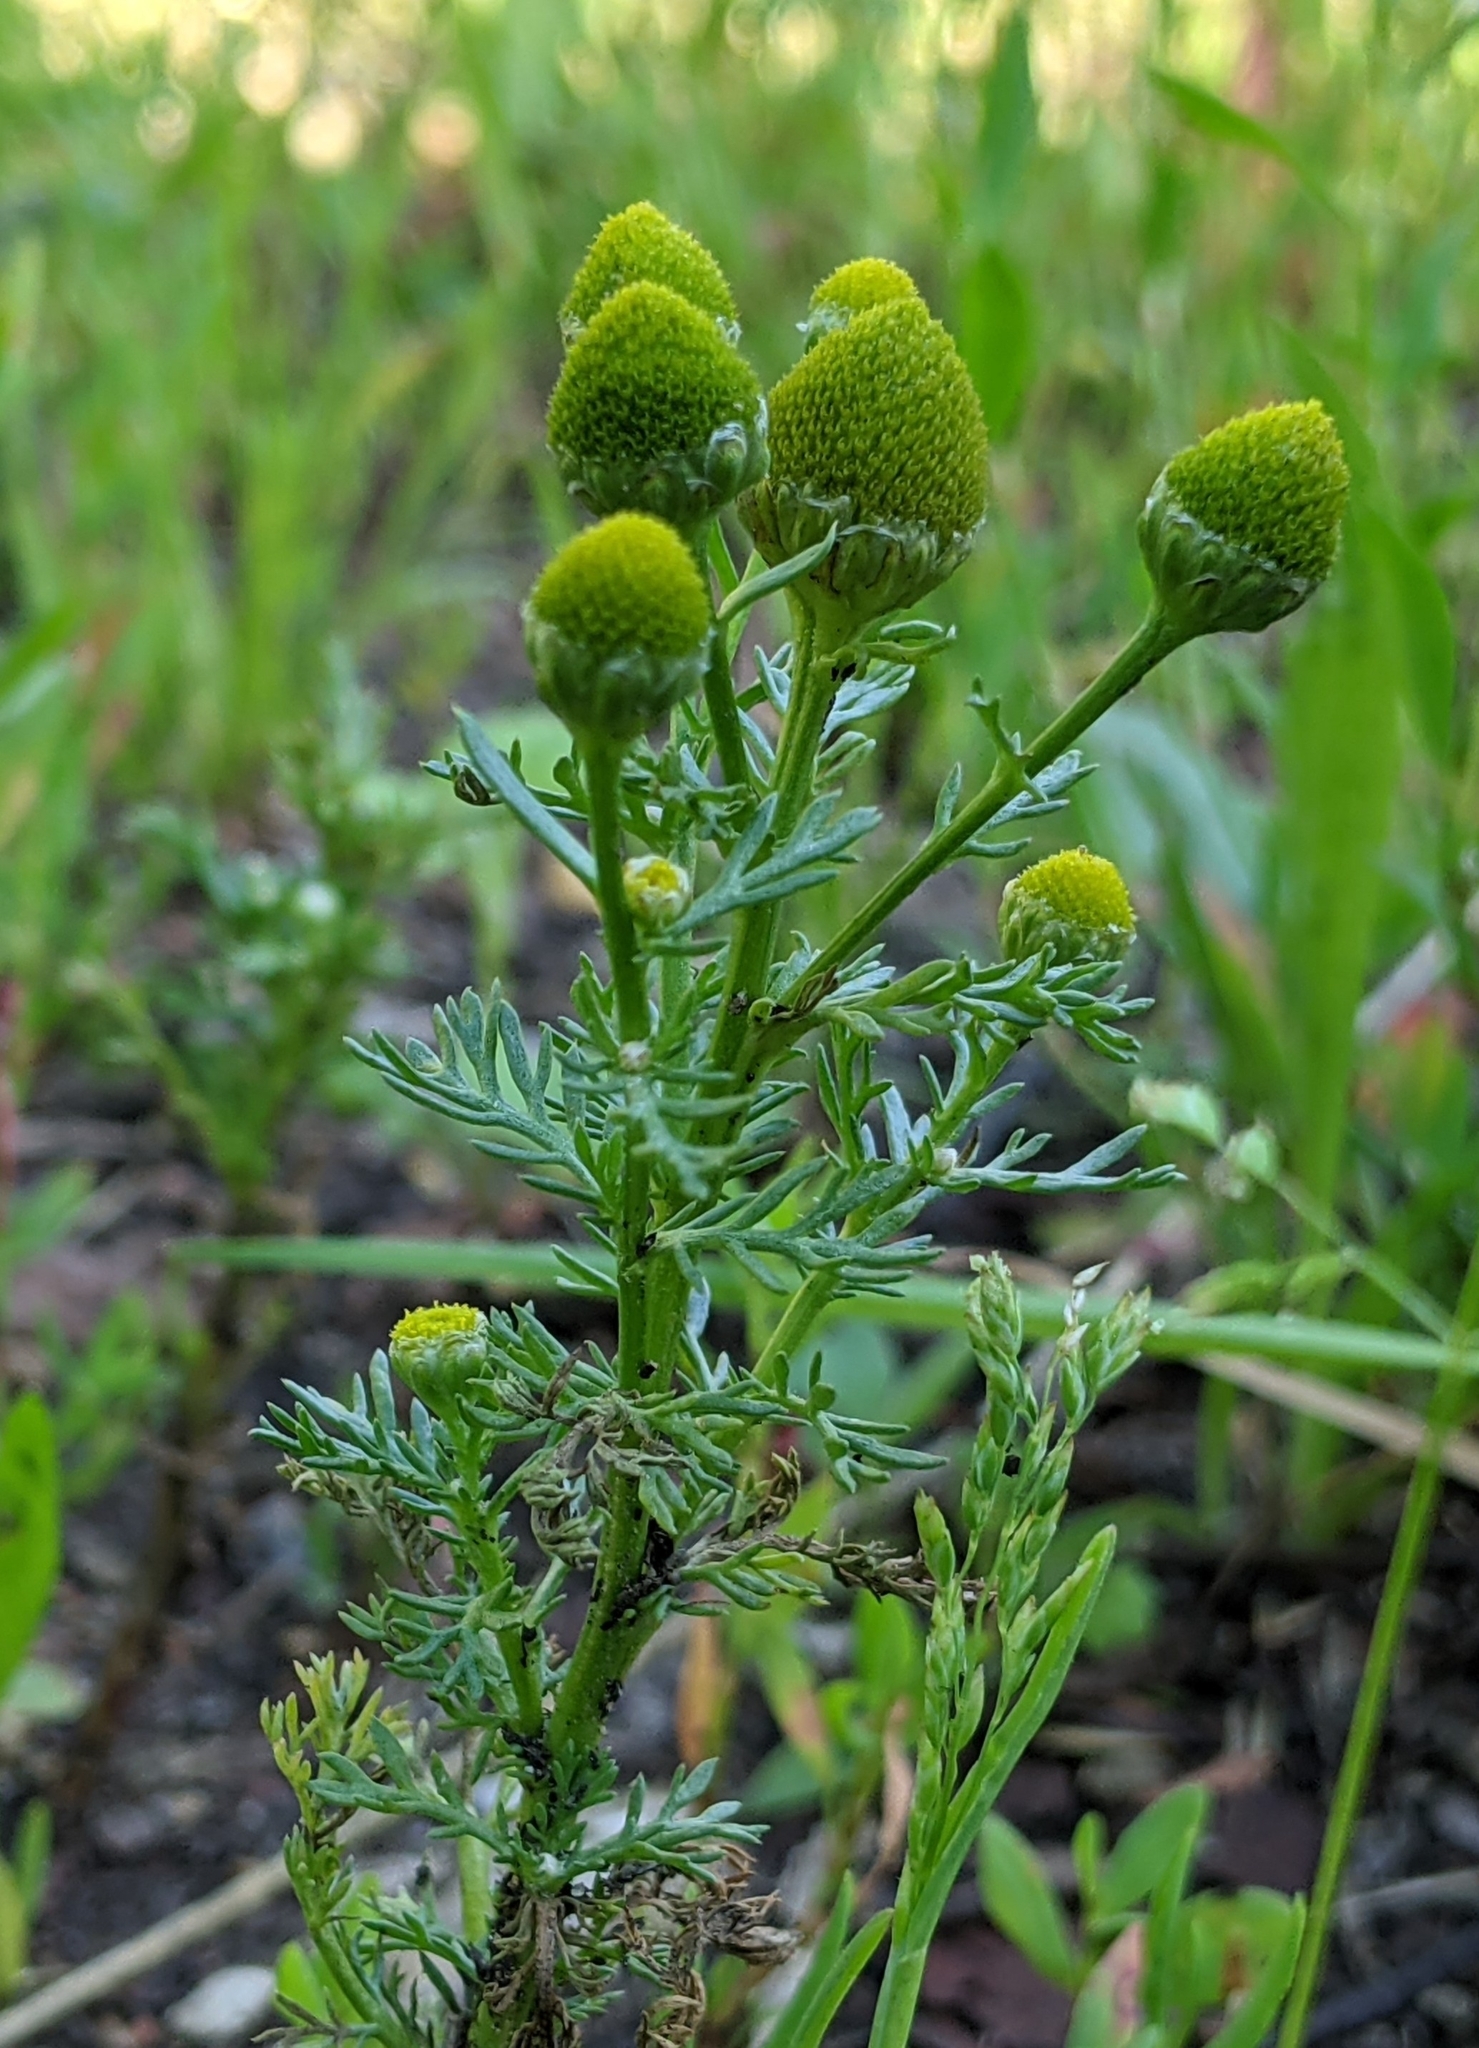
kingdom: Plantae
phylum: Tracheophyta
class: Magnoliopsida
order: Asterales
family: Asteraceae
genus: Matricaria
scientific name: Matricaria discoidea
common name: Disc mayweed
